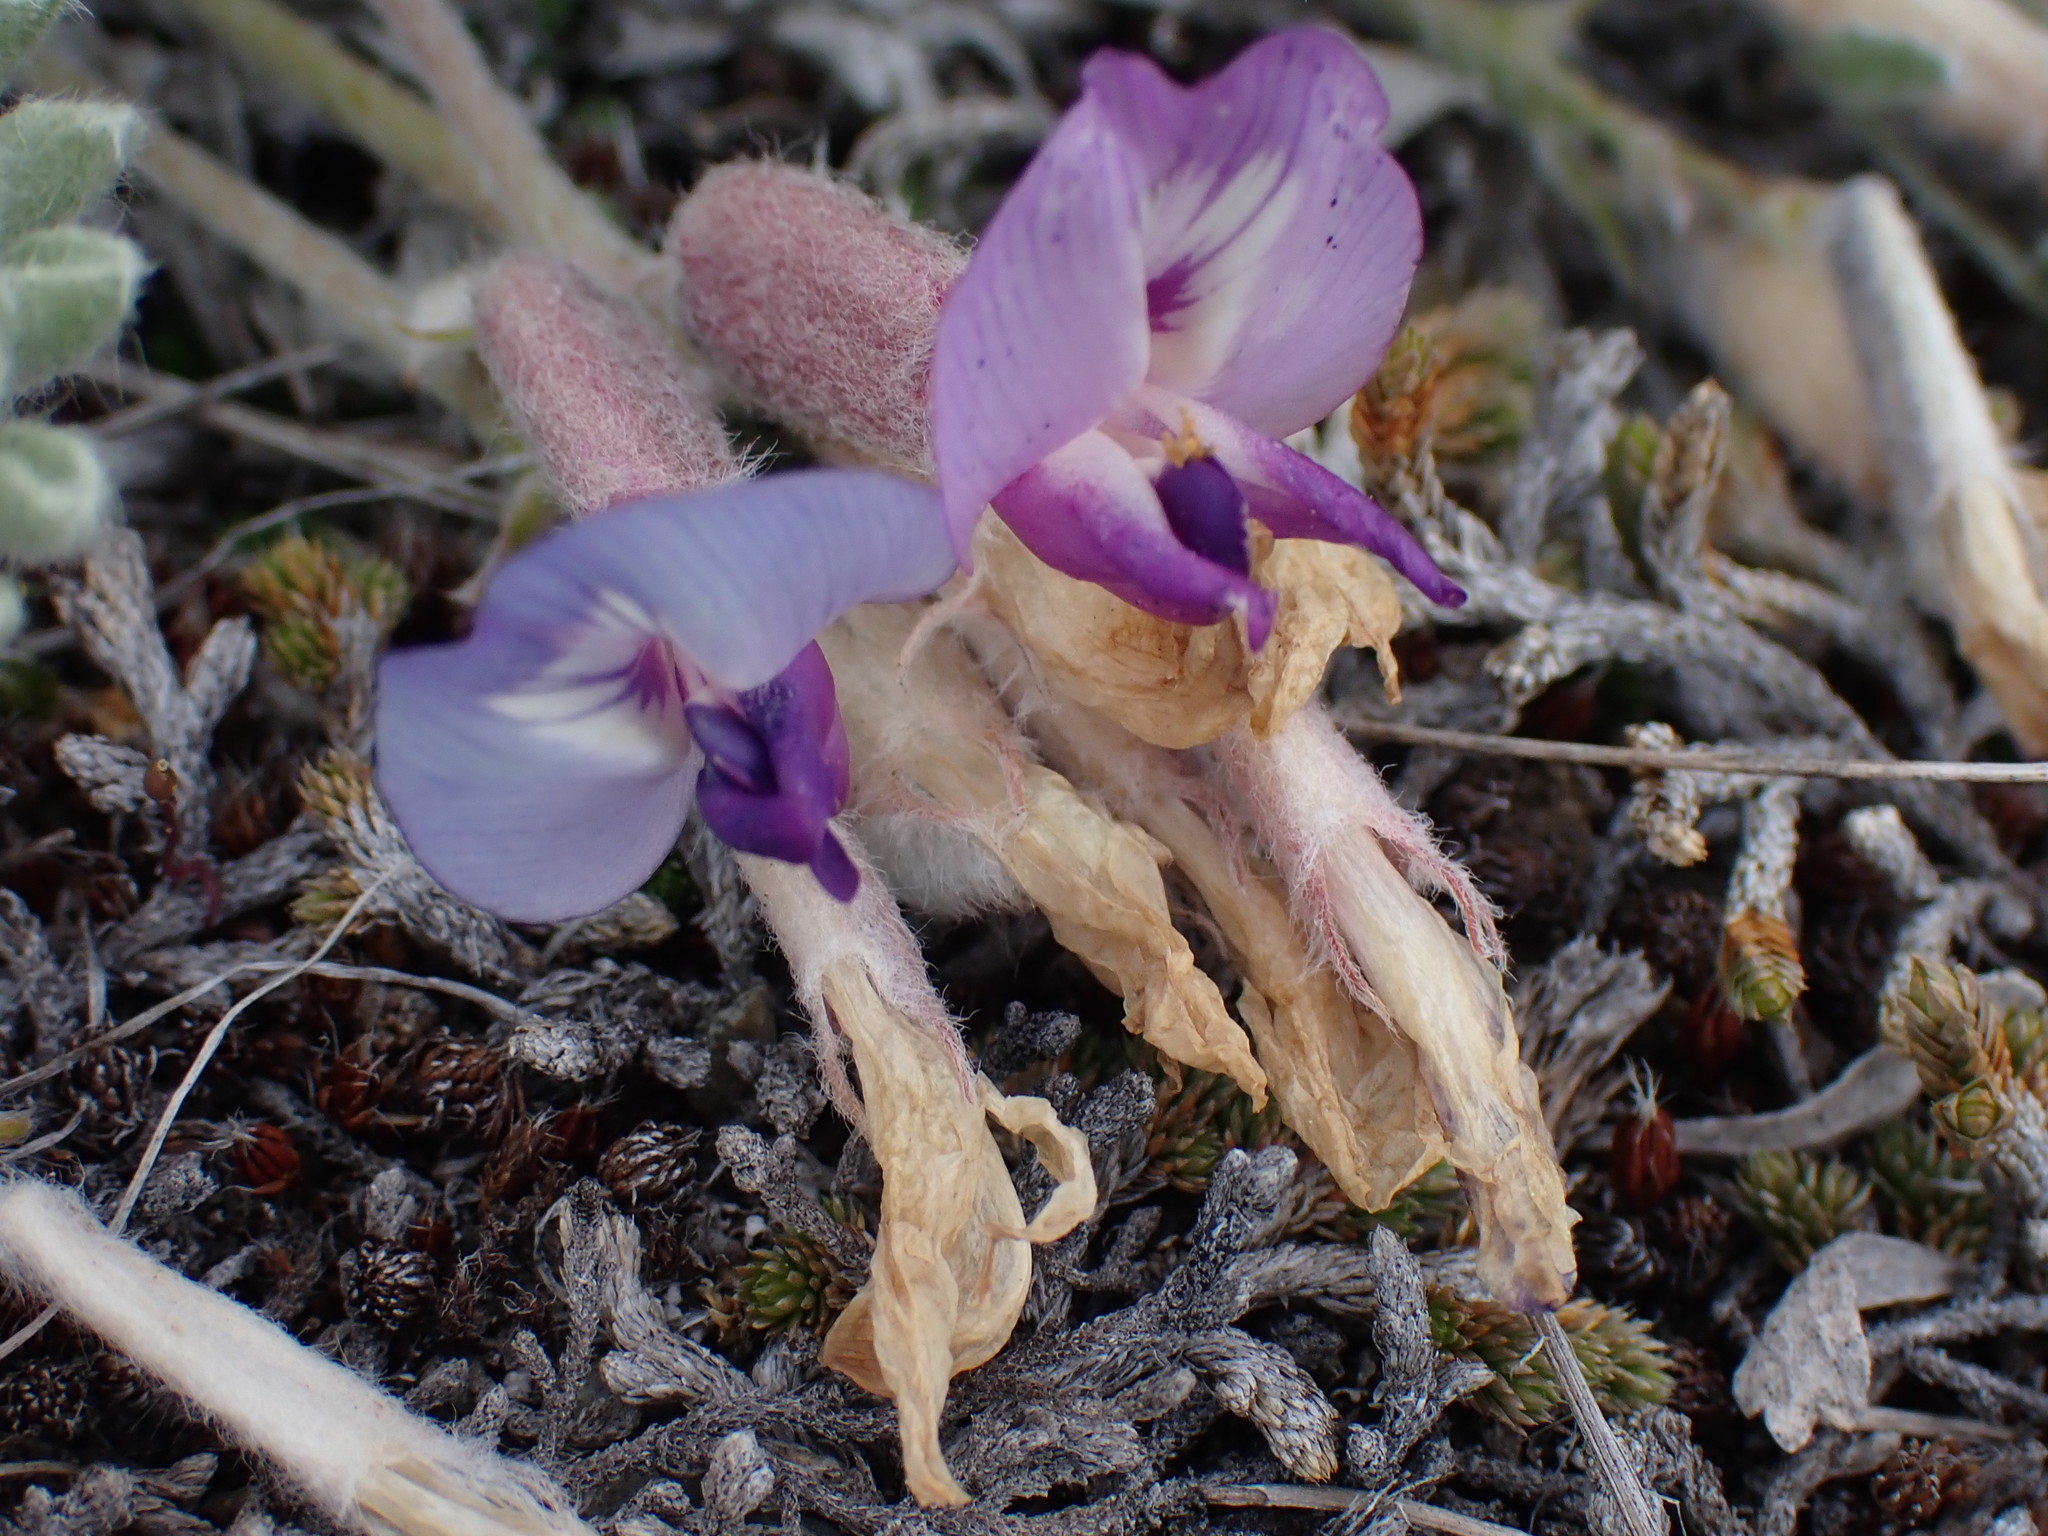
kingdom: Plantae
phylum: Tracheophyta
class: Magnoliopsida
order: Fabales
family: Fabaceae
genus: Astragalus
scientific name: Astragalus purshii
